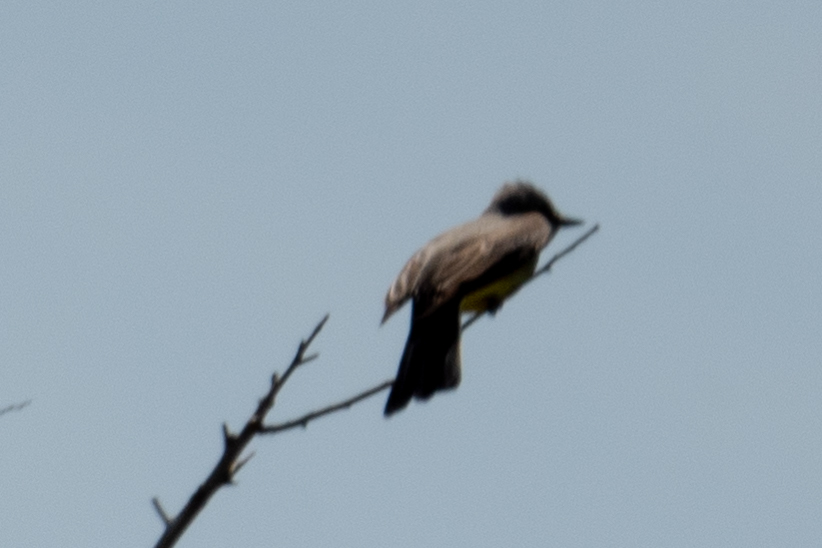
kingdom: Animalia
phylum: Chordata
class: Aves
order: Passeriformes
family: Tyrannidae
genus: Tyrannus
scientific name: Tyrannus verticalis
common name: Western kingbird
